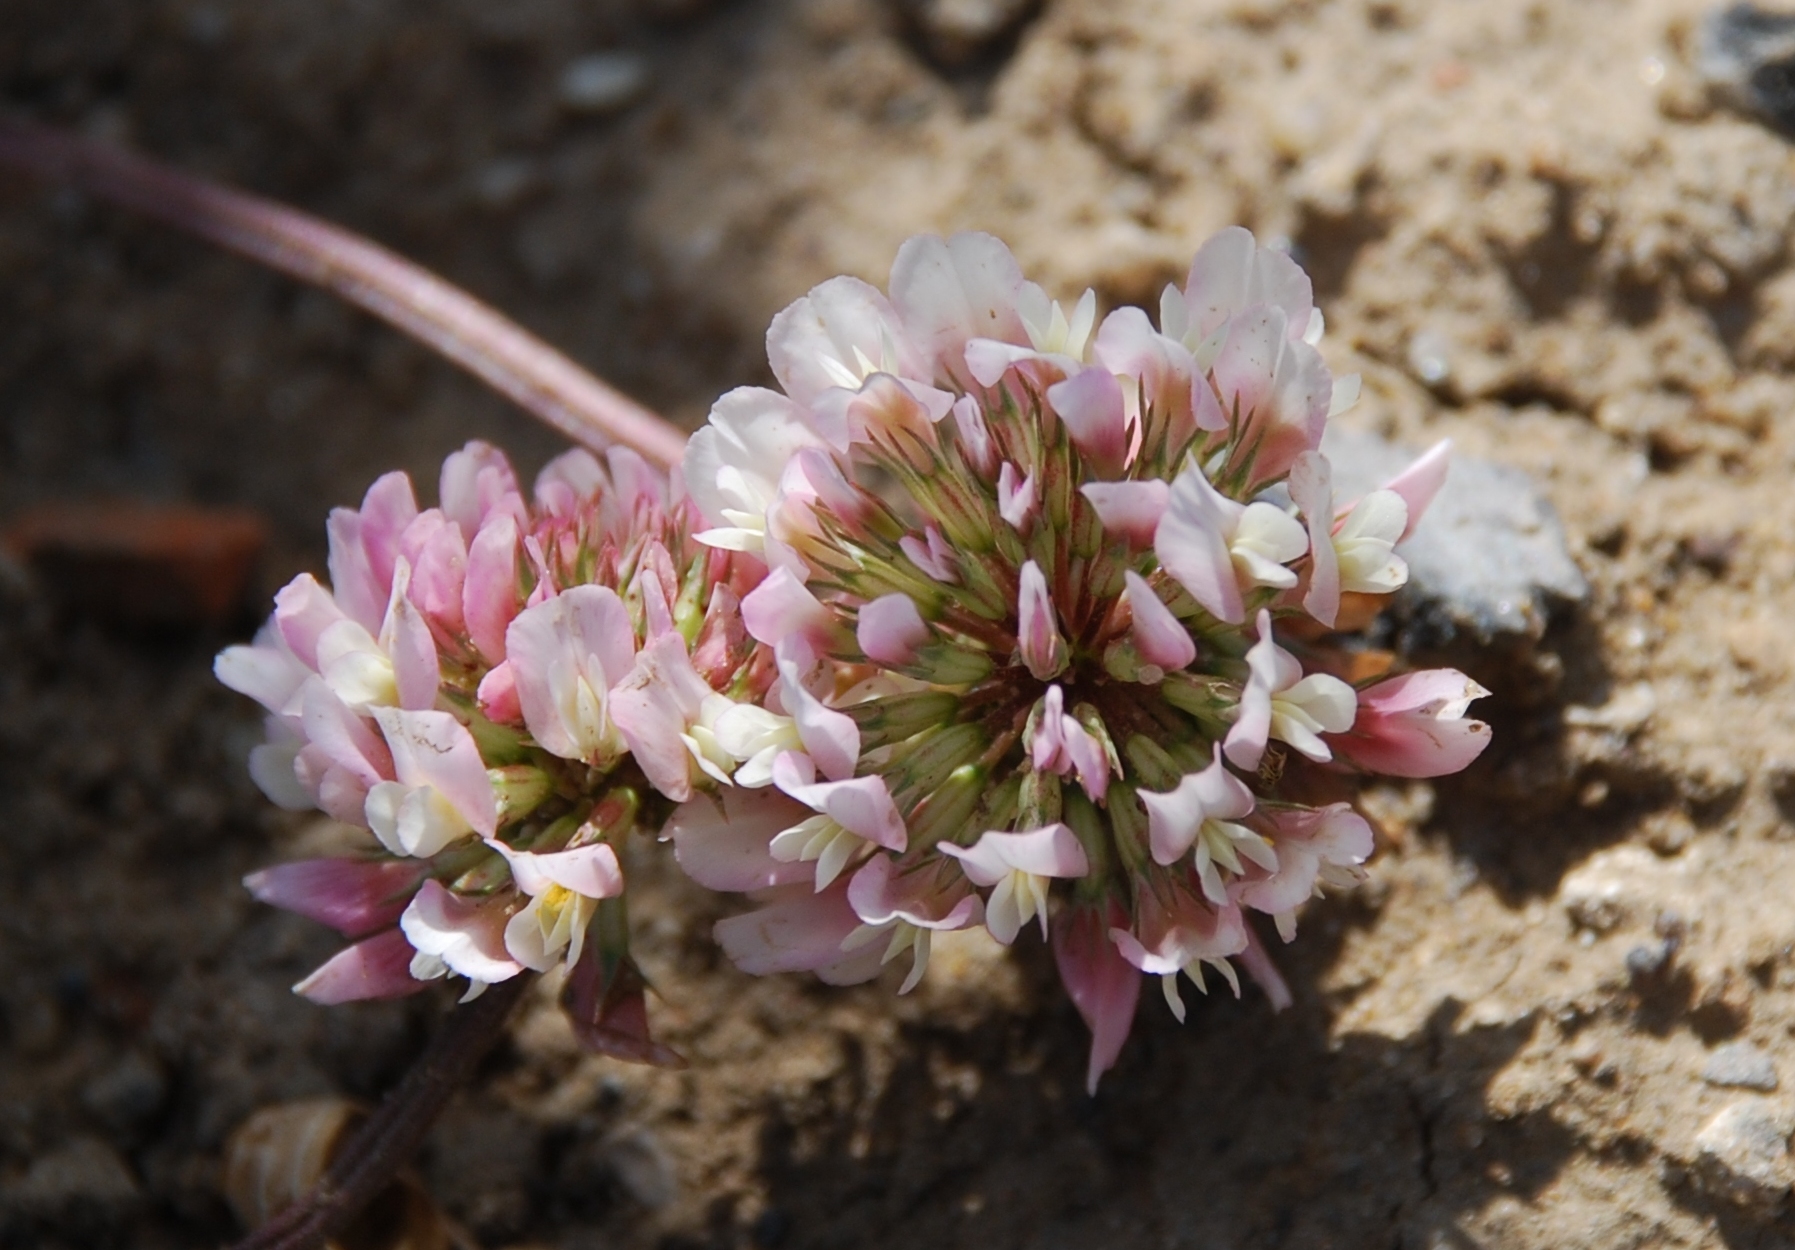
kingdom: Plantae
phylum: Tracheophyta
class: Magnoliopsida
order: Fabales
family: Fabaceae
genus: Trifolium
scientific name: Trifolium repens
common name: White clover
